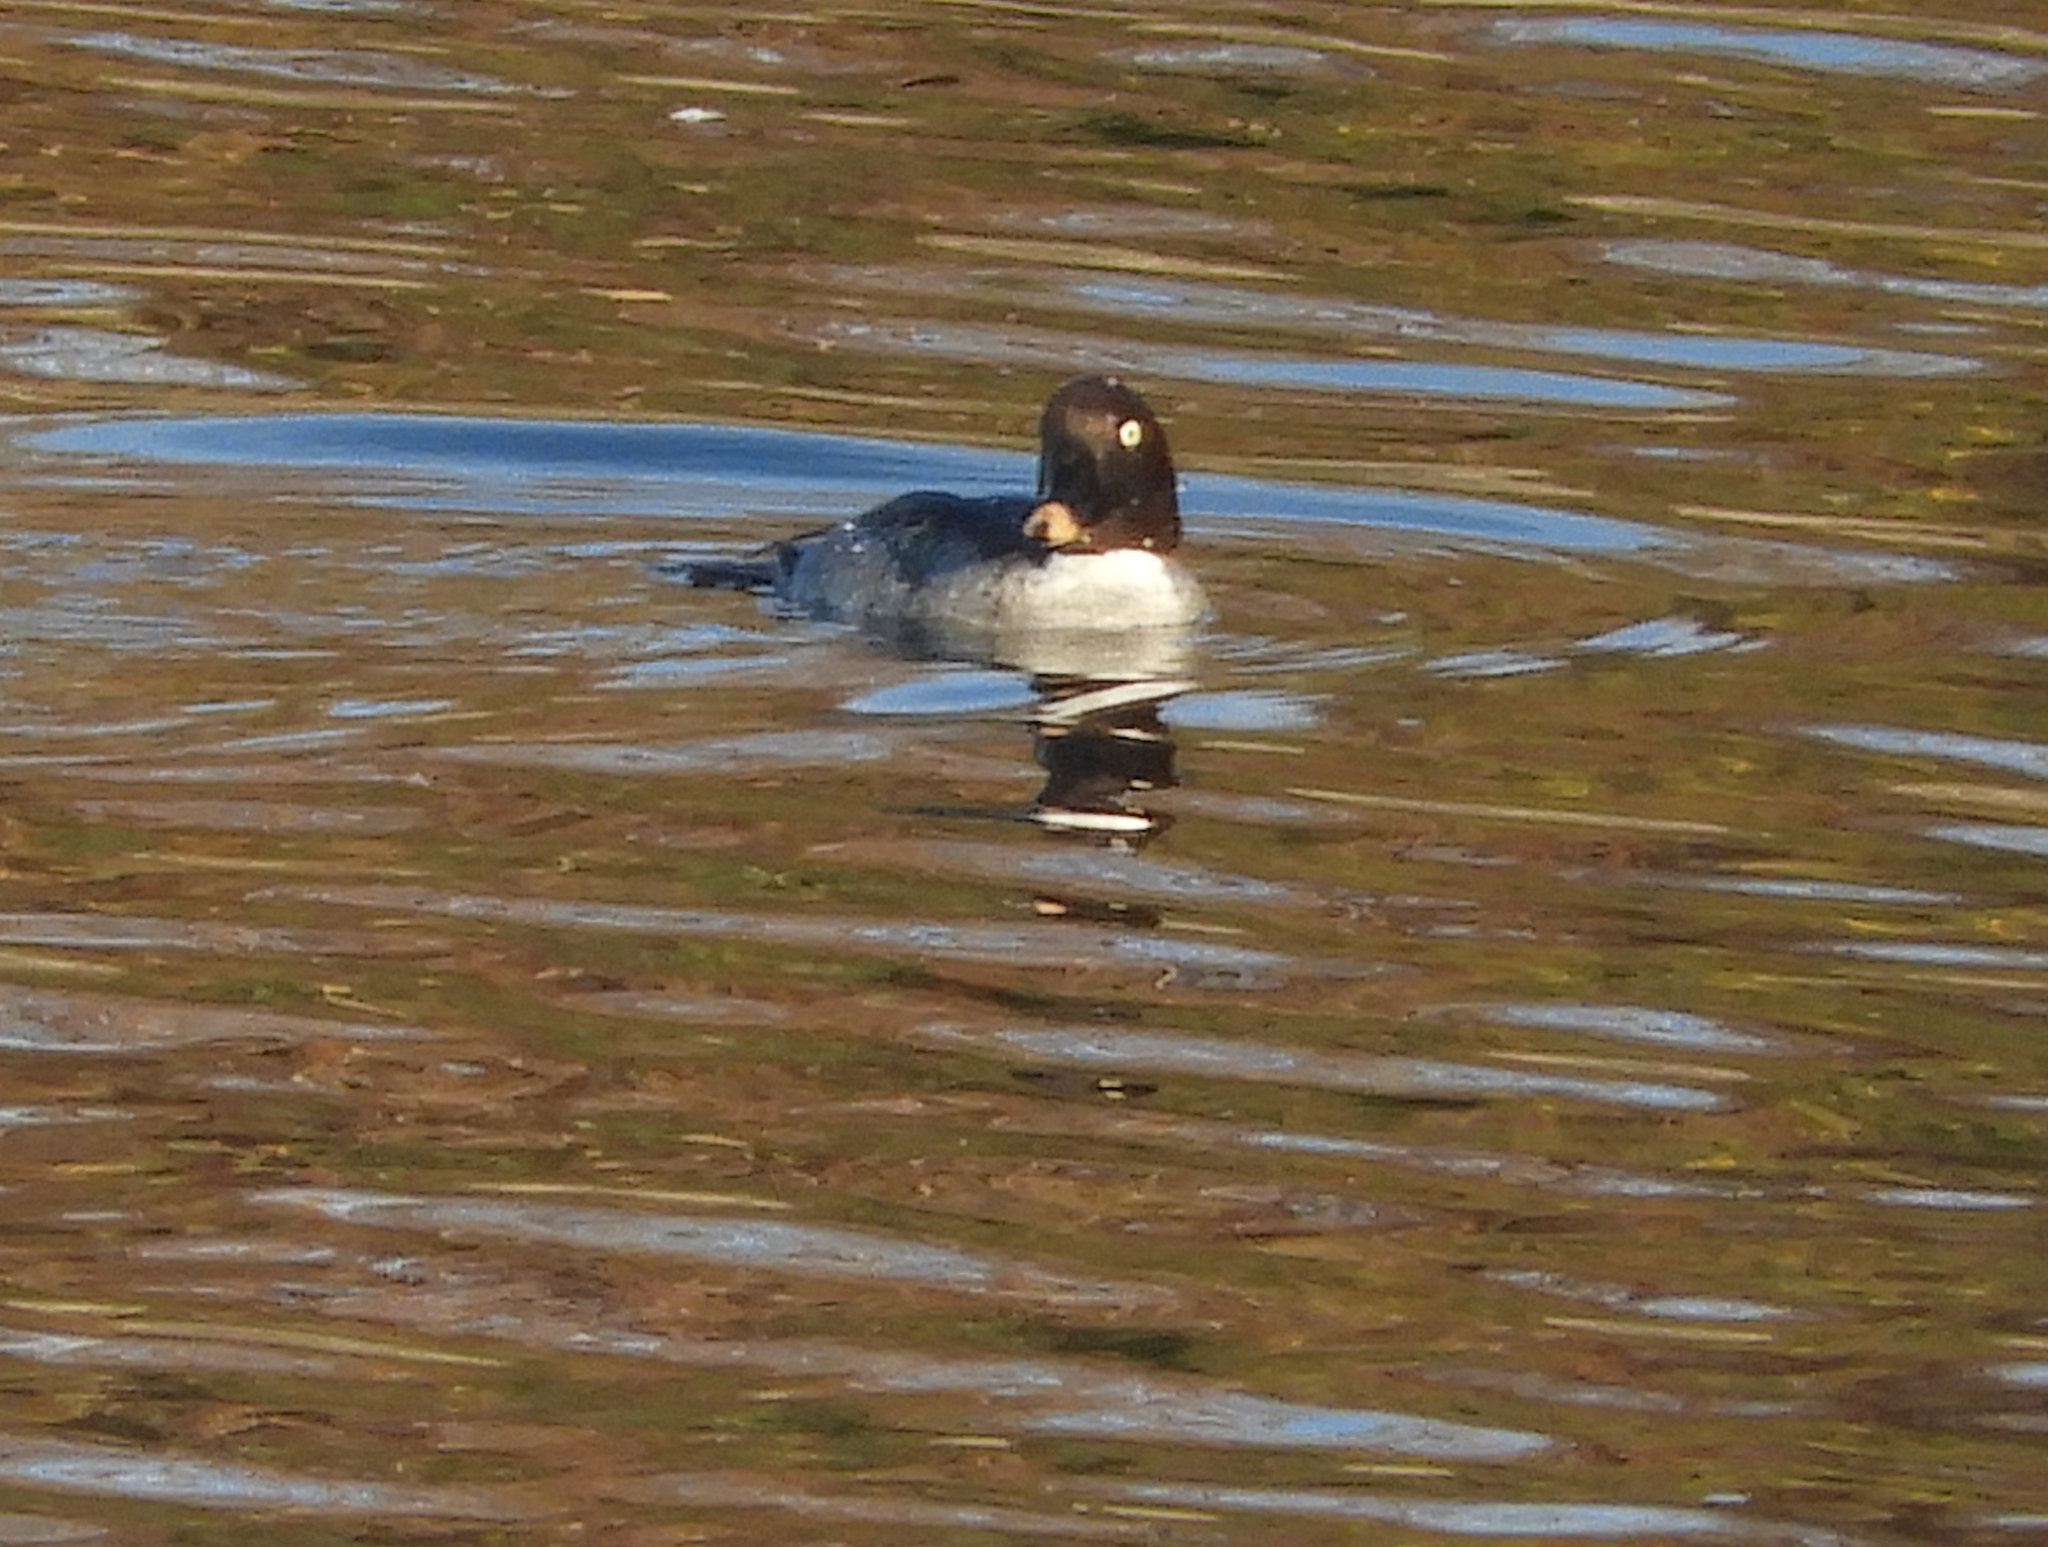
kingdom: Animalia
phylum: Chordata
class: Aves
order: Anseriformes
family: Anatidae
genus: Bucephala
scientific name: Bucephala clangula
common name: Common goldeneye
